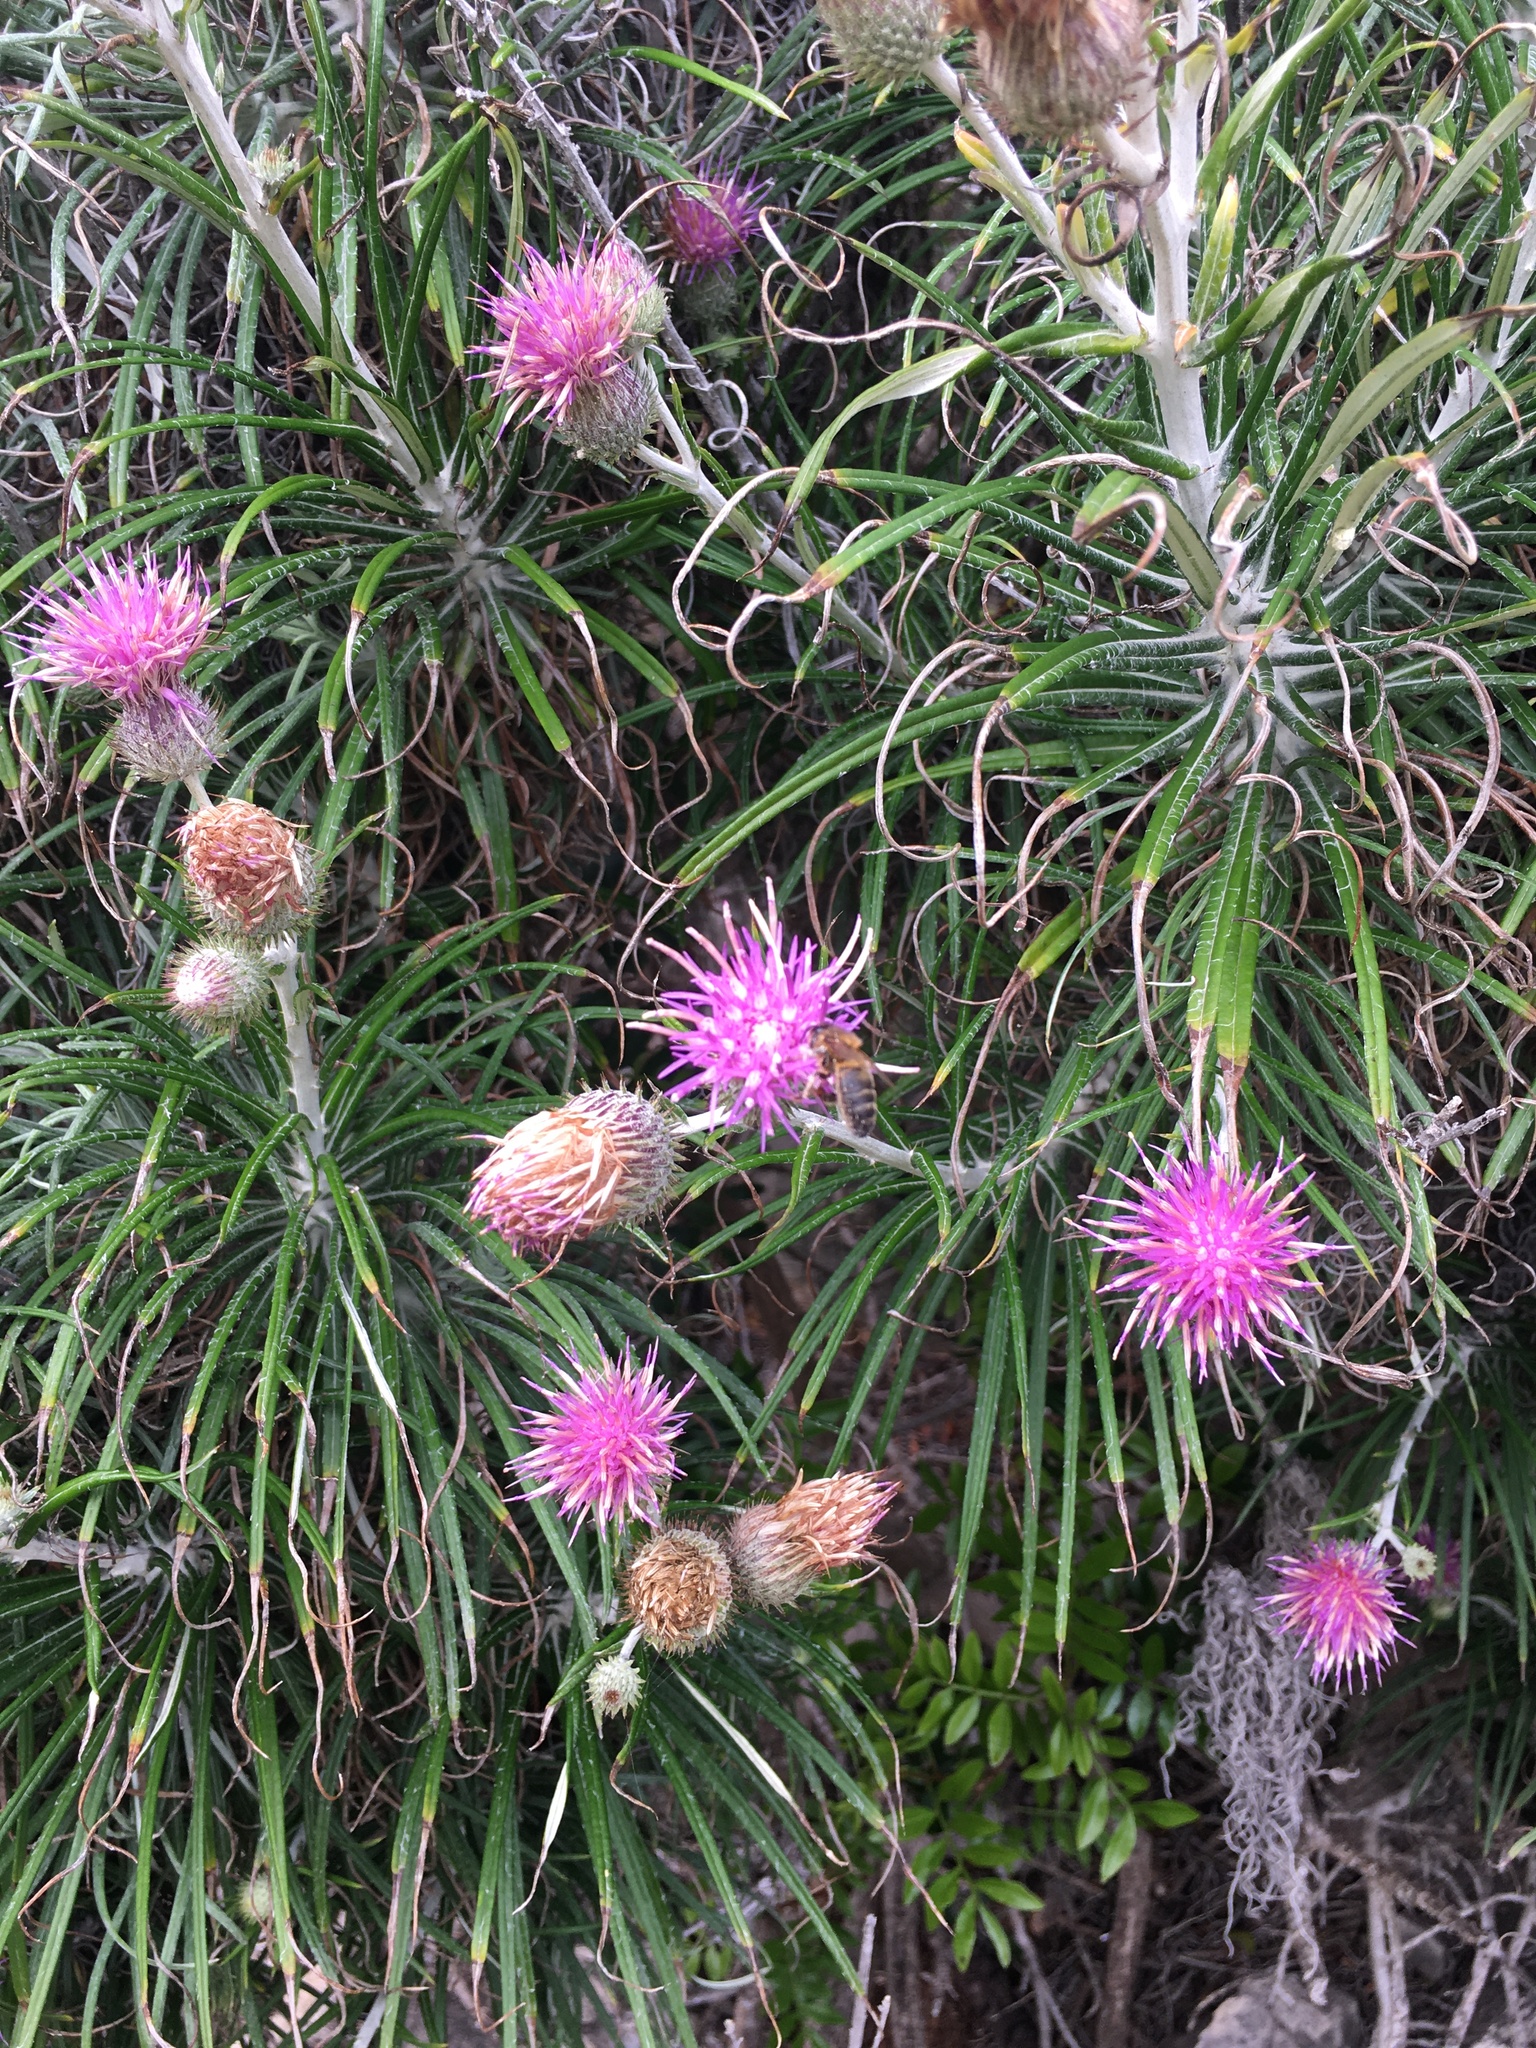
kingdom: Animalia
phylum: Arthropoda
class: Insecta
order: Hymenoptera
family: Apidae
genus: Apis
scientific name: Apis mellifera
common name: Honey bee
